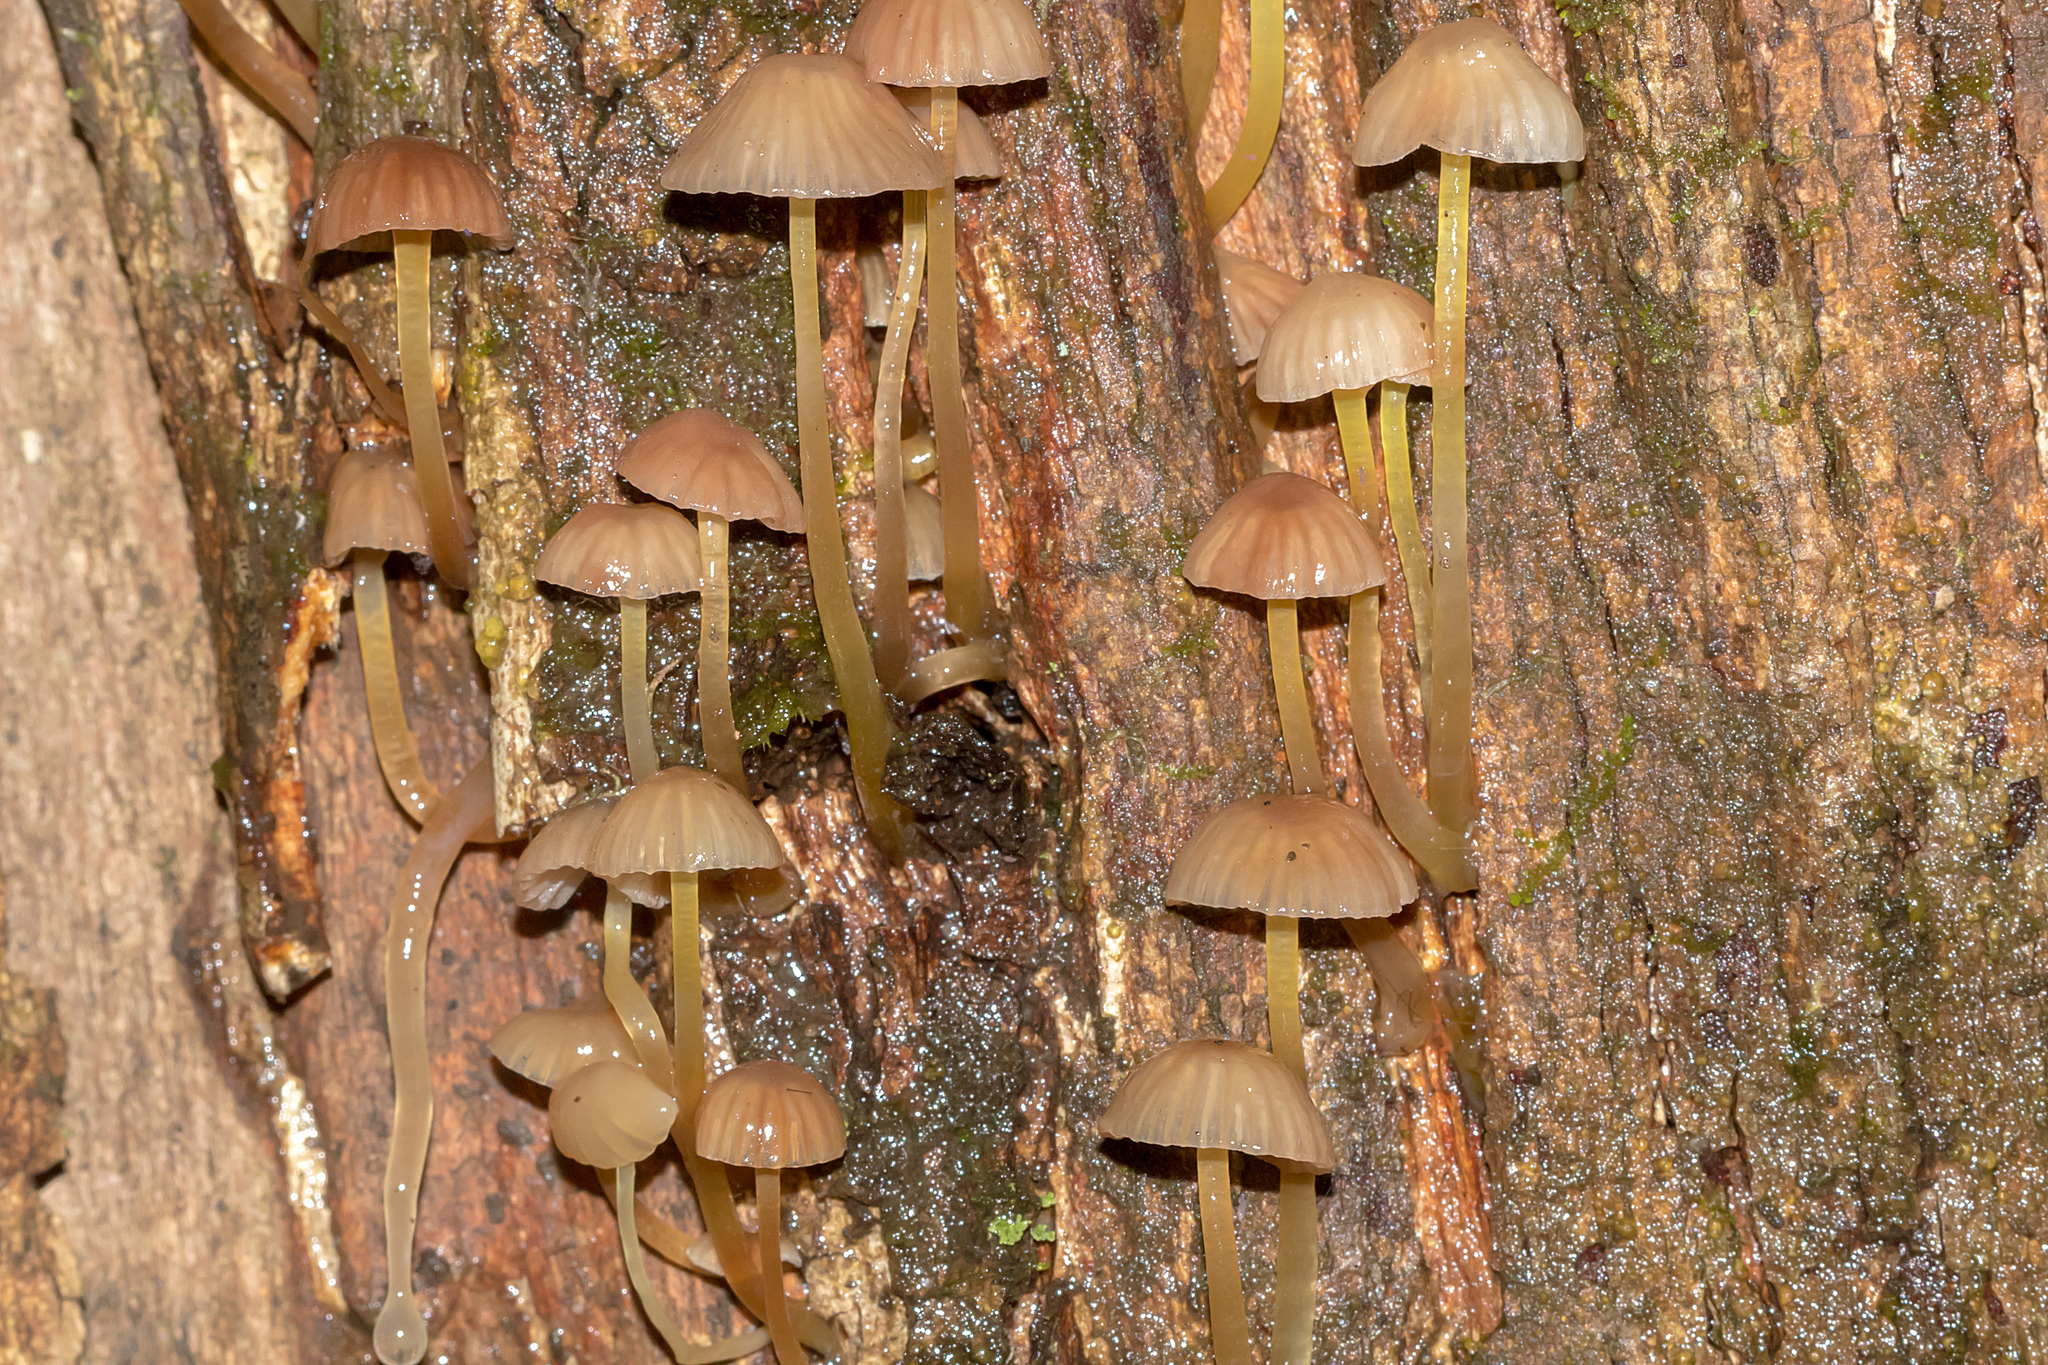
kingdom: Fungi
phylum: Basidiomycota
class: Agaricomycetes
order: Agaricales
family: Mycenaceae
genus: Mycena
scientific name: Mycena epipterygia
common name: Yellowleg bonnet
